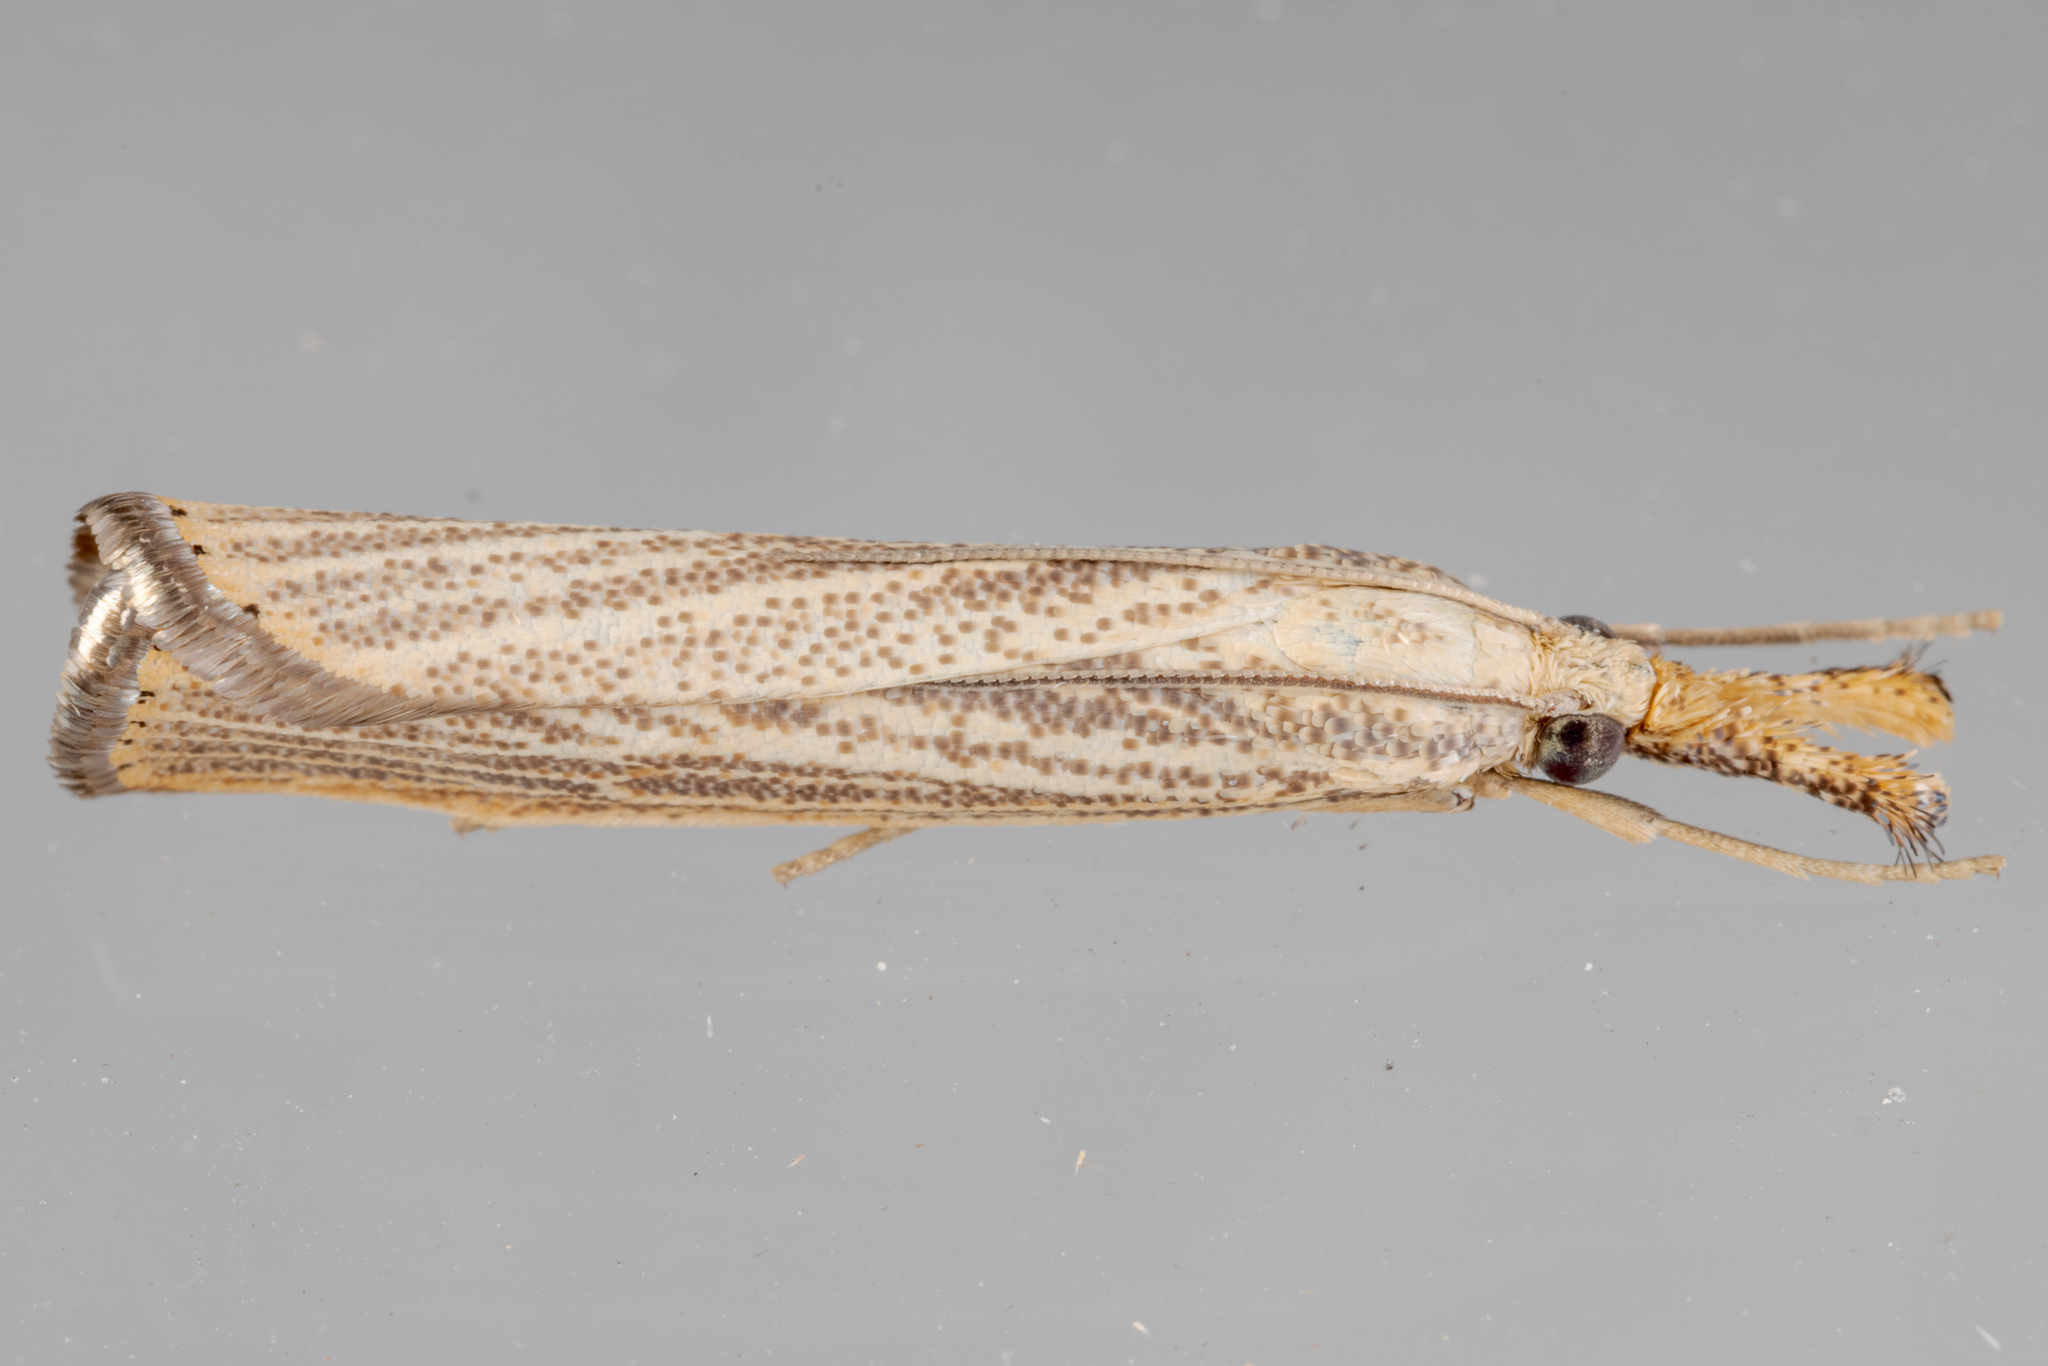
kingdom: Animalia
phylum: Arthropoda
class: Insecta
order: Lepidoptera
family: Crambidae
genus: Agriphila
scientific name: Agriphila vulgivagellus
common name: Vagabond crambus moth
